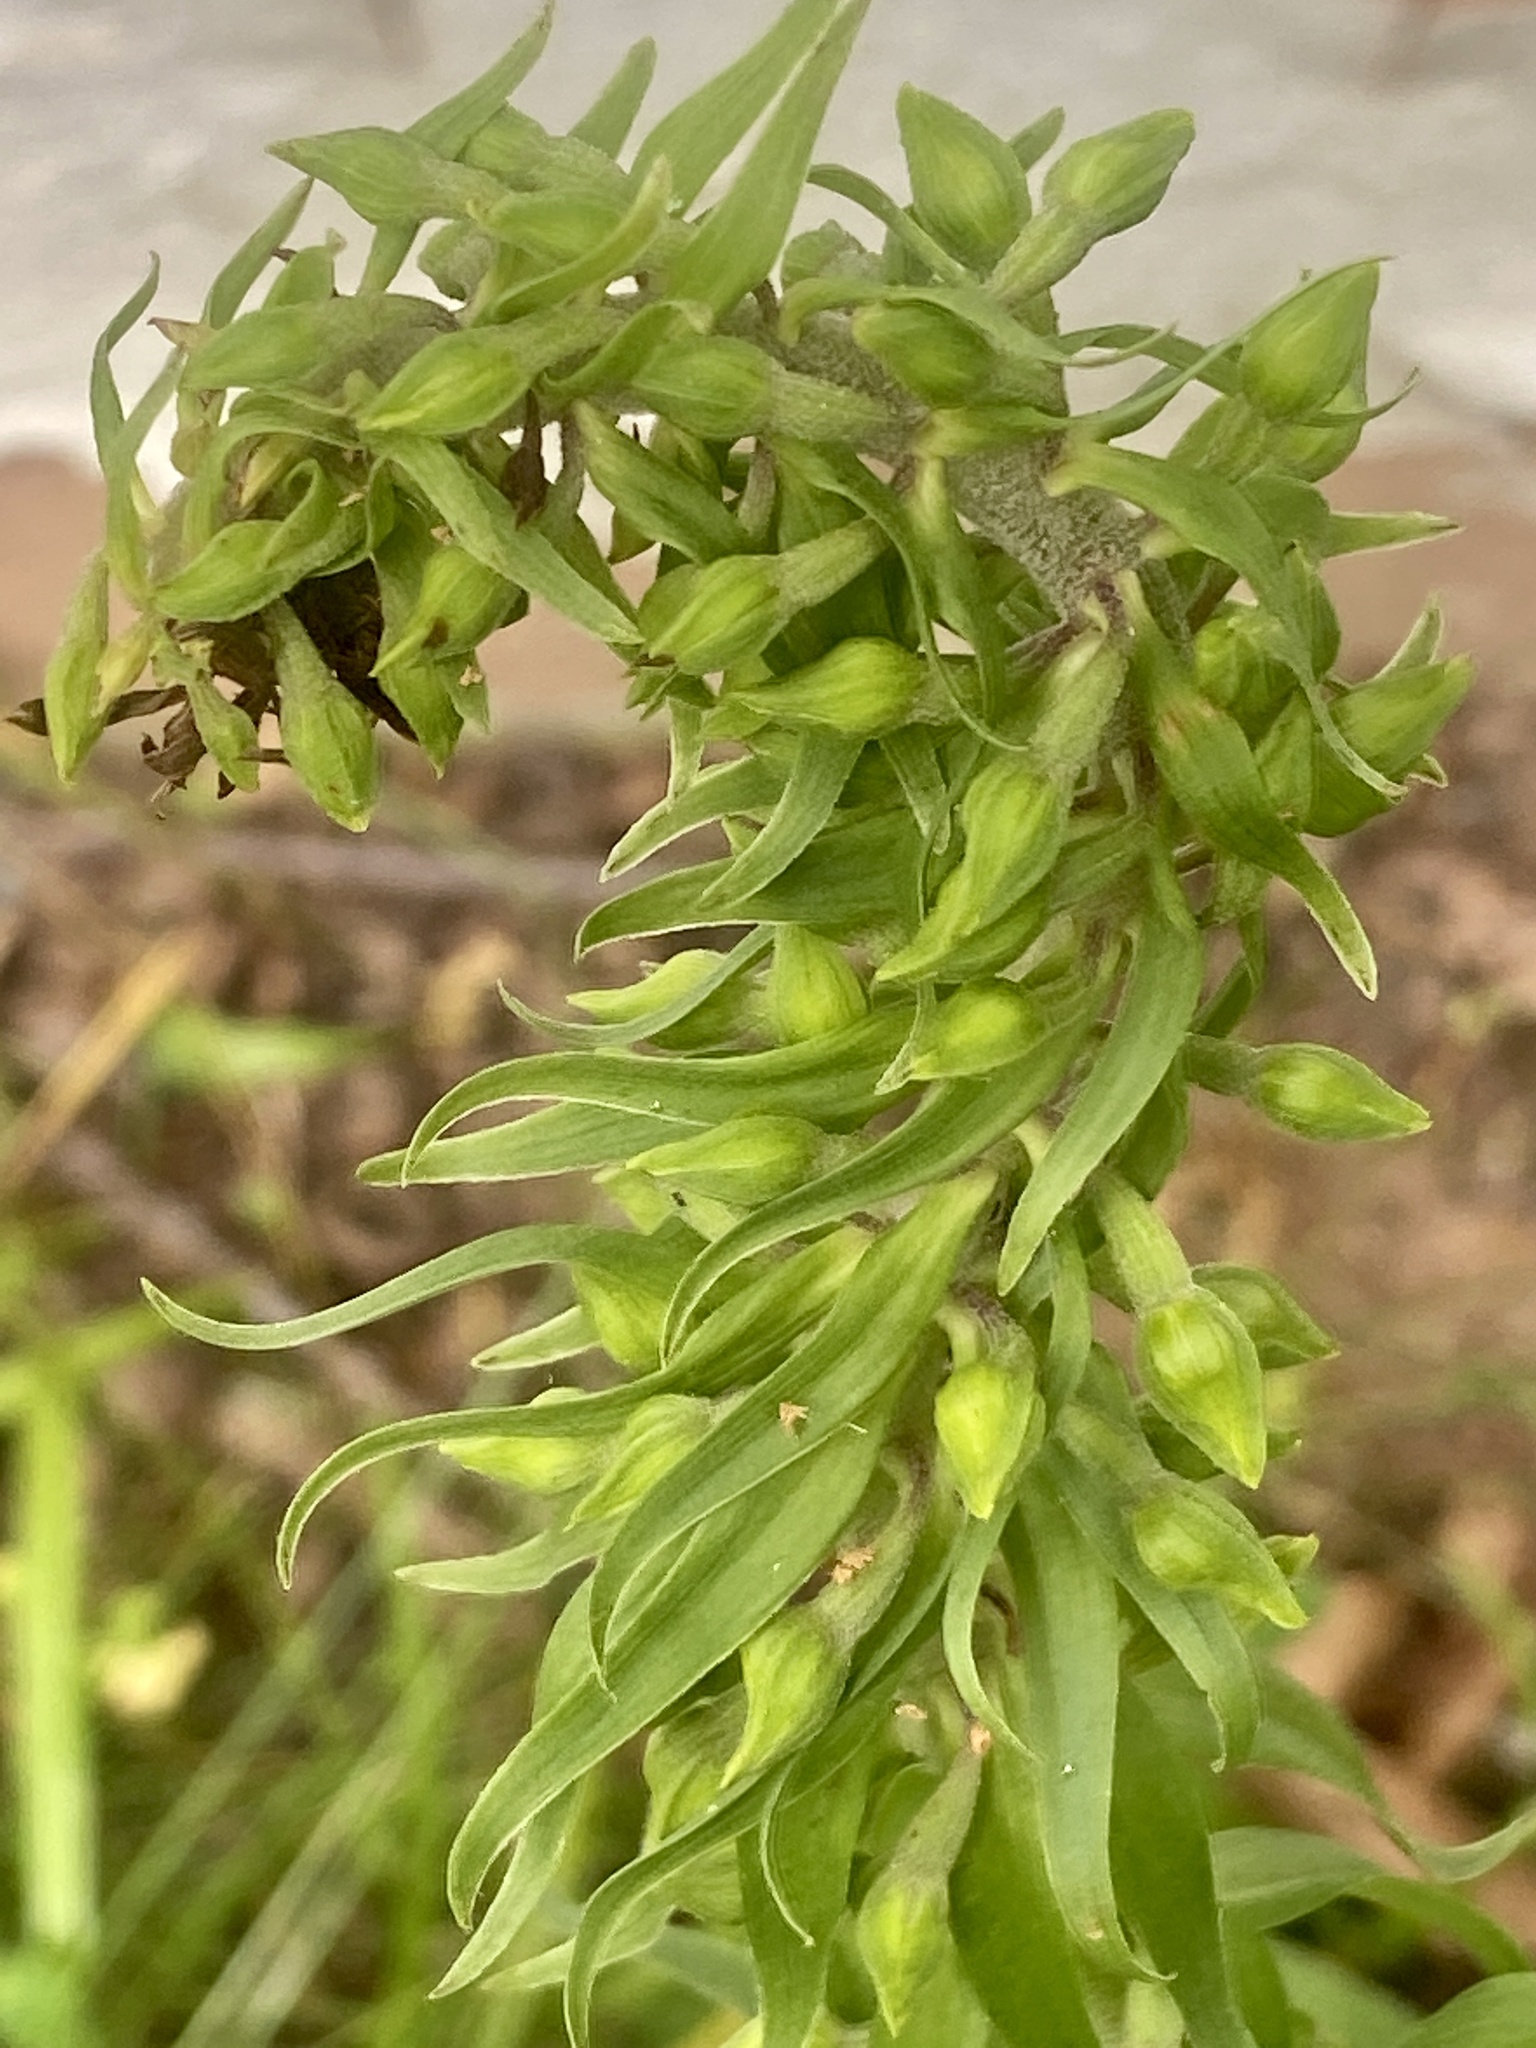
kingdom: Plantae
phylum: Tracheophyta
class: Liliopsida
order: Asparagales
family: Orchidaceae
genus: Epipactis
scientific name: Epipactis helleborine
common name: Broad-leaved helleborine
